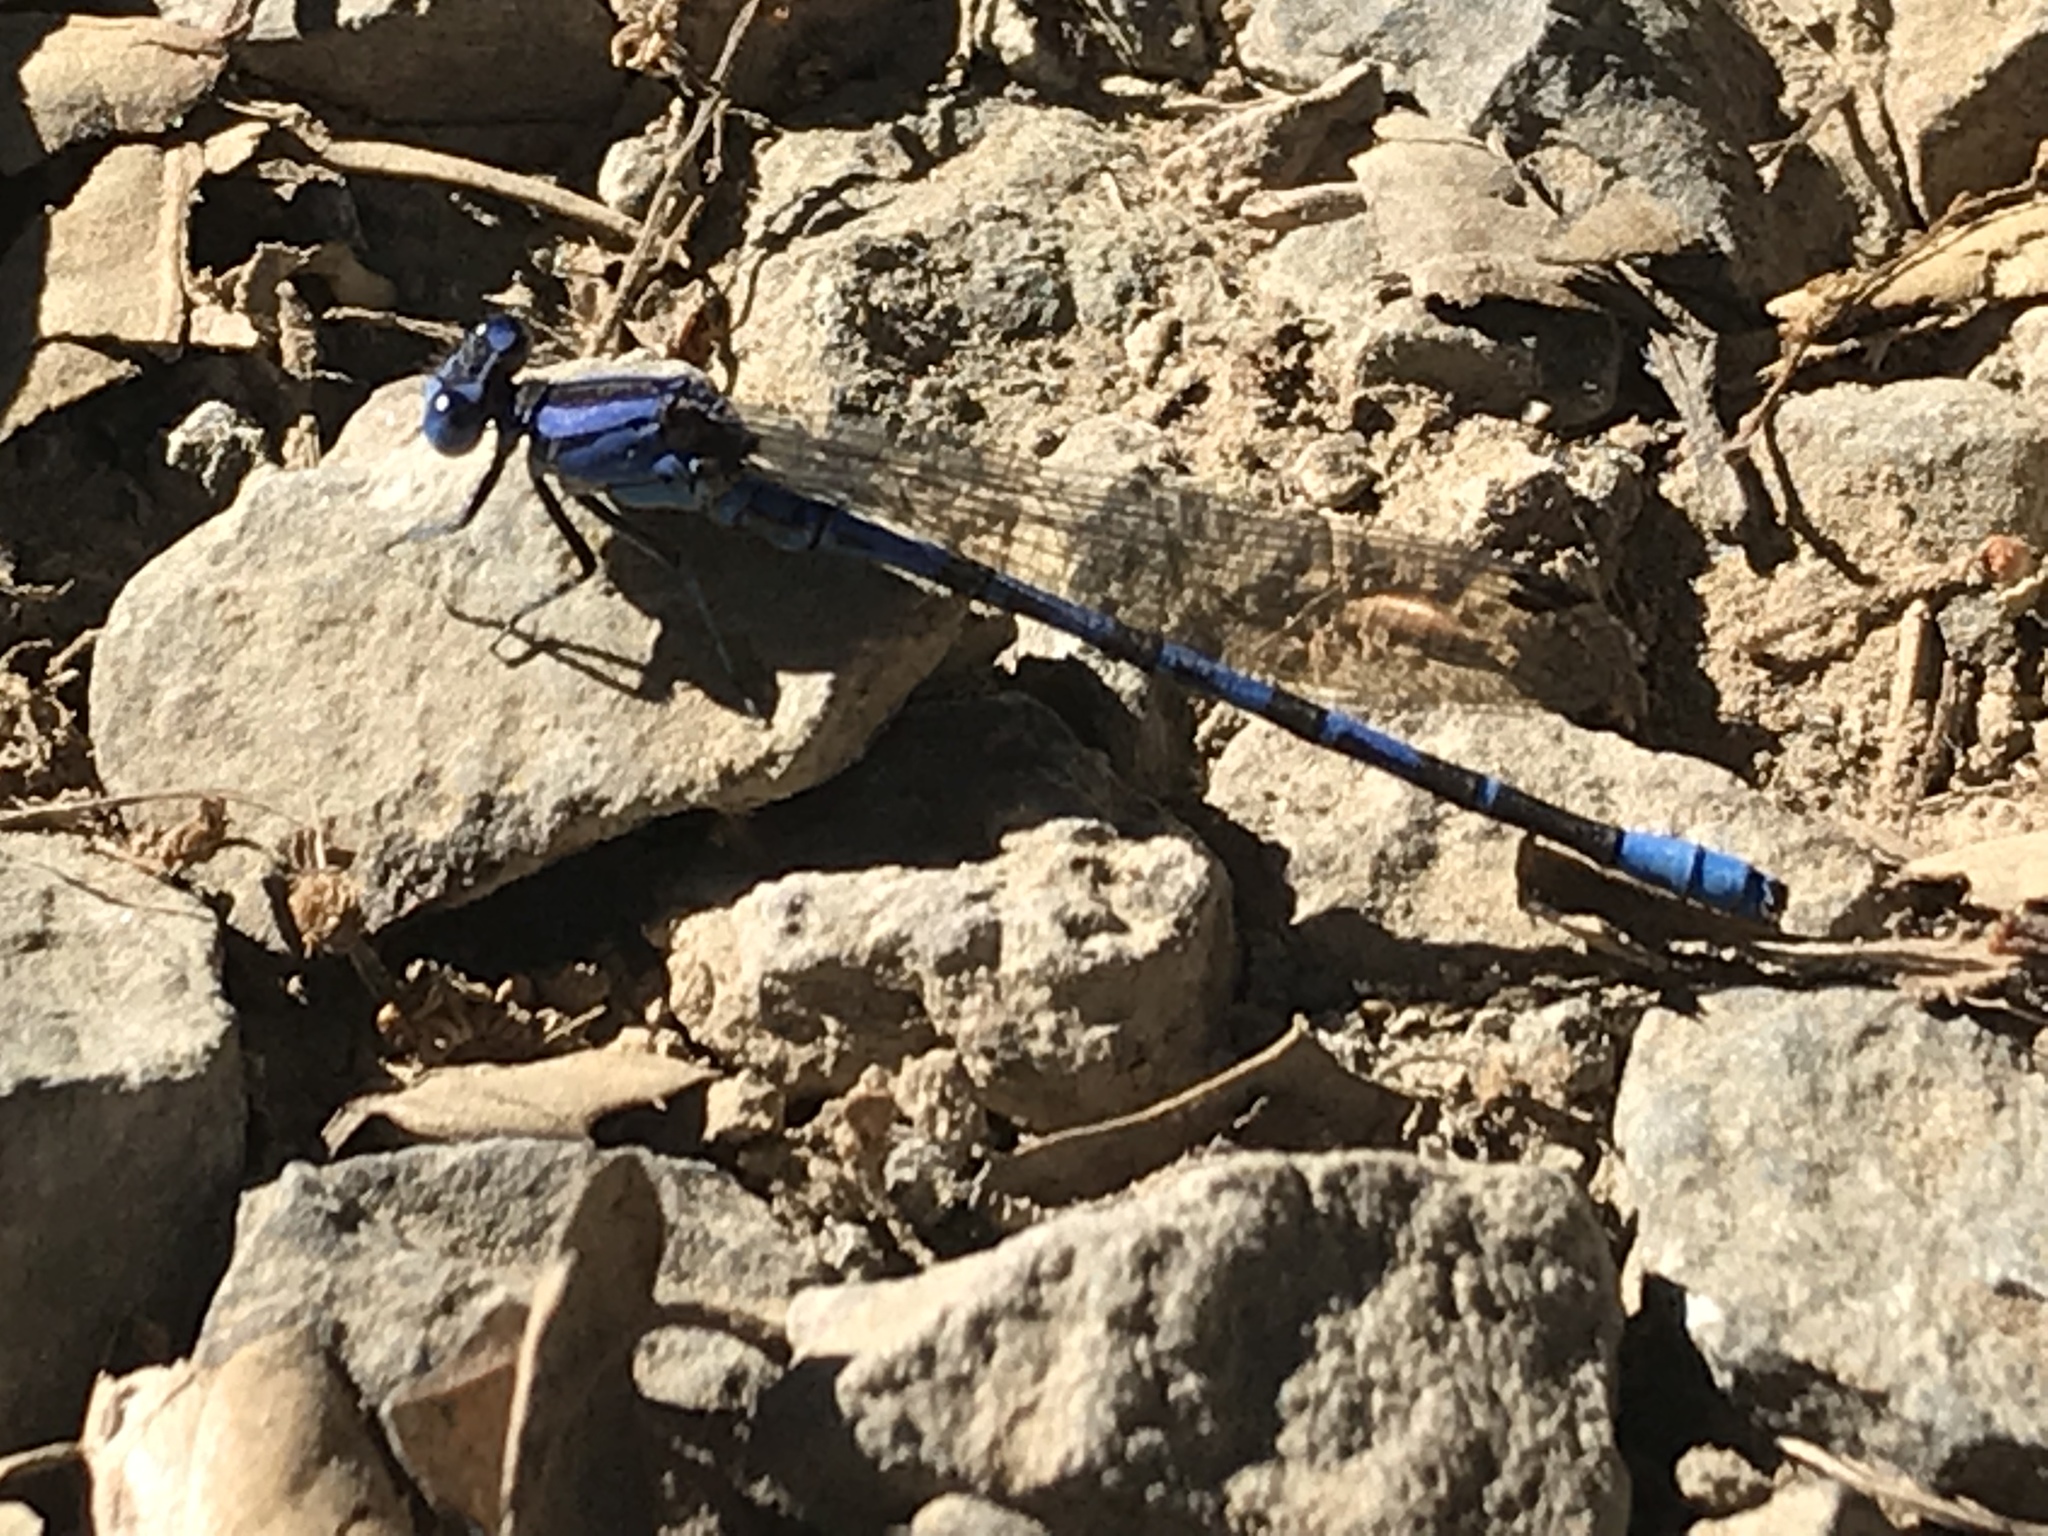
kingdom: Animalia
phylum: Arthropoda
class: Insecta
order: Odonata
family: Coenagrionidae
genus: Argia
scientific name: Argia vivida
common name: Vivid dancer
